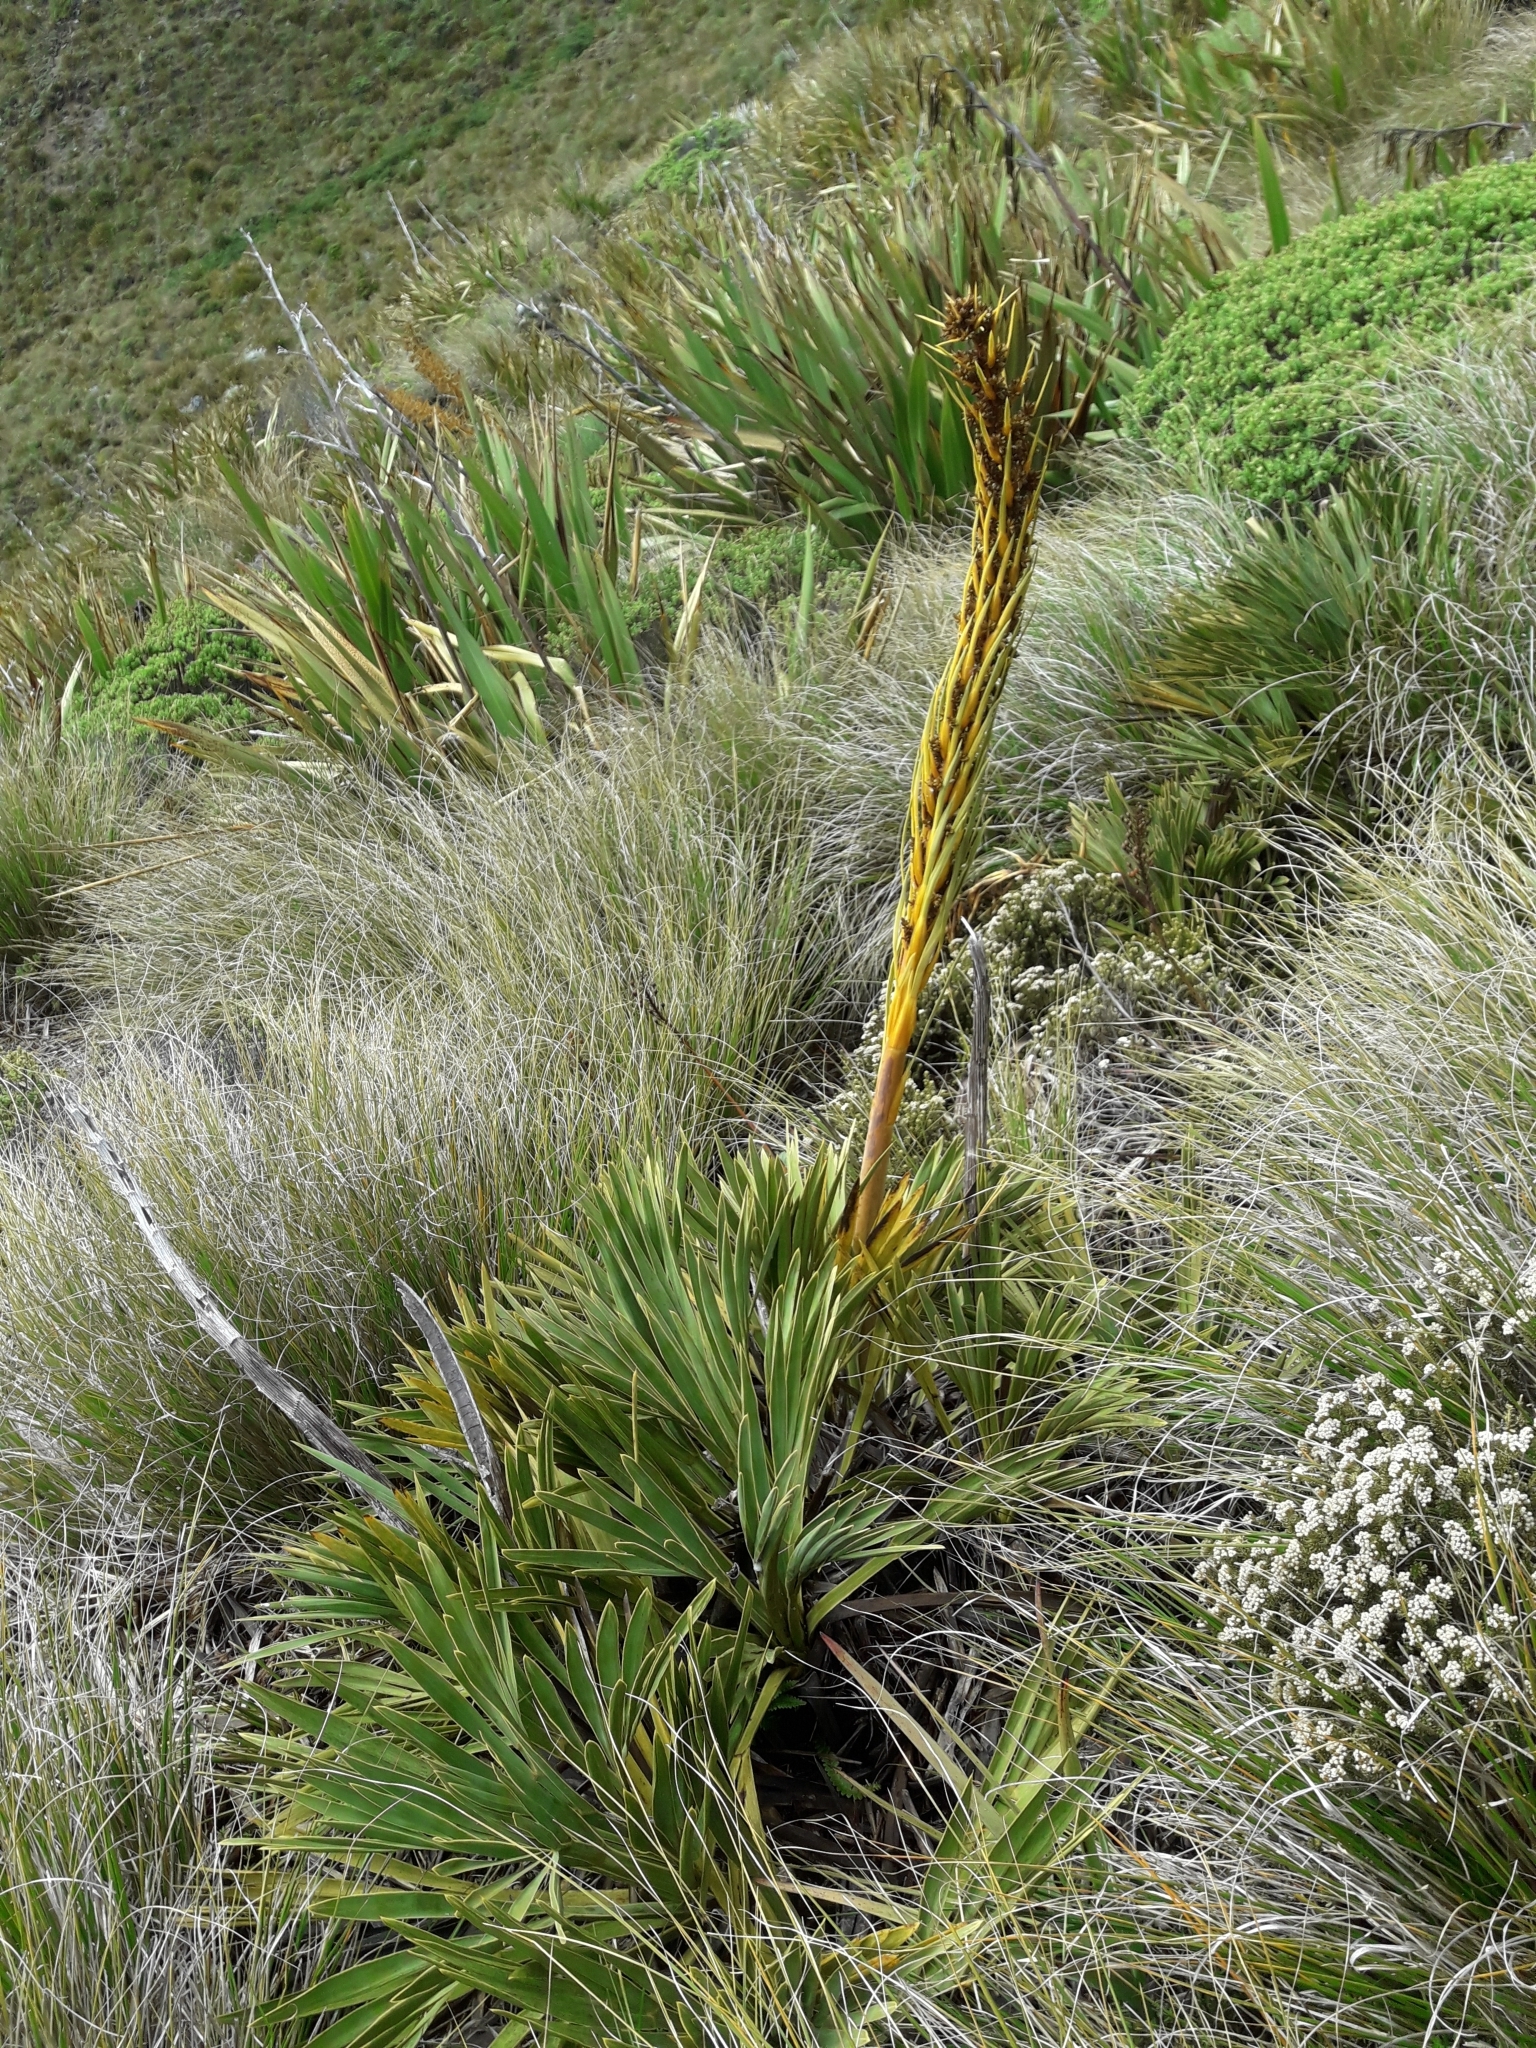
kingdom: Plantae
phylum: Tracheophyta
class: Magnoliopsida
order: Apiales
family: Apiaceae
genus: Aciphylla
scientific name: Aciphylla ferox
